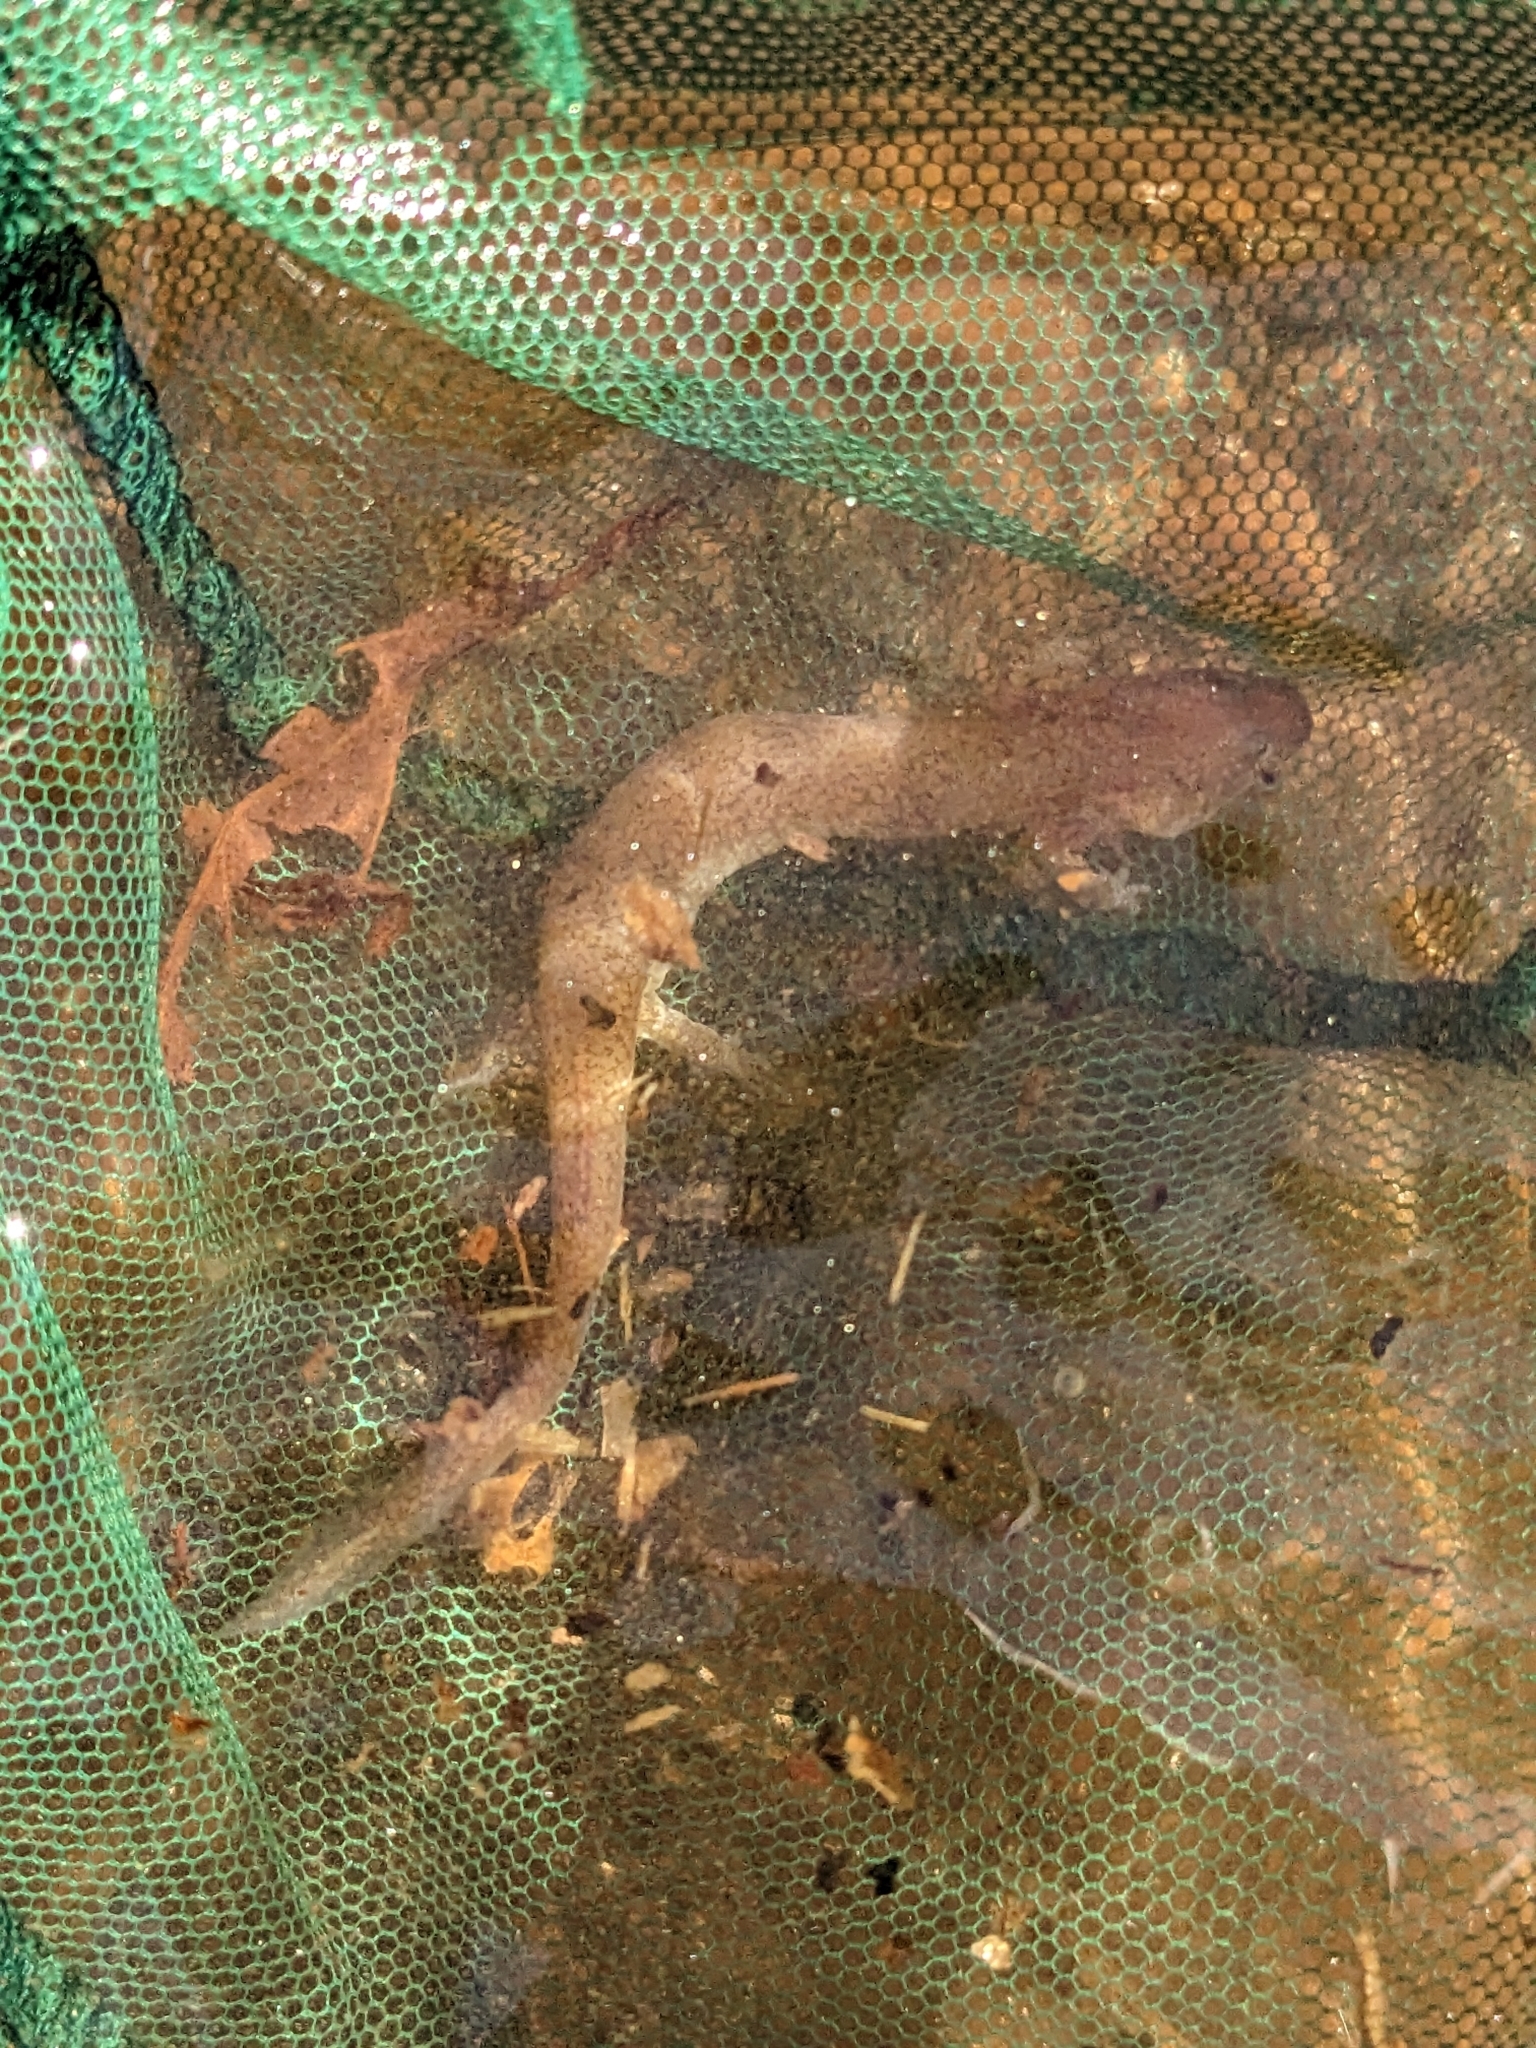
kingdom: Animalia
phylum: Chordata
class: Amphibia
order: Caudata
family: Plethodontidae
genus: Gyrinophilus
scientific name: Gyrinophilus porphyriticus
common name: Spring salamander
